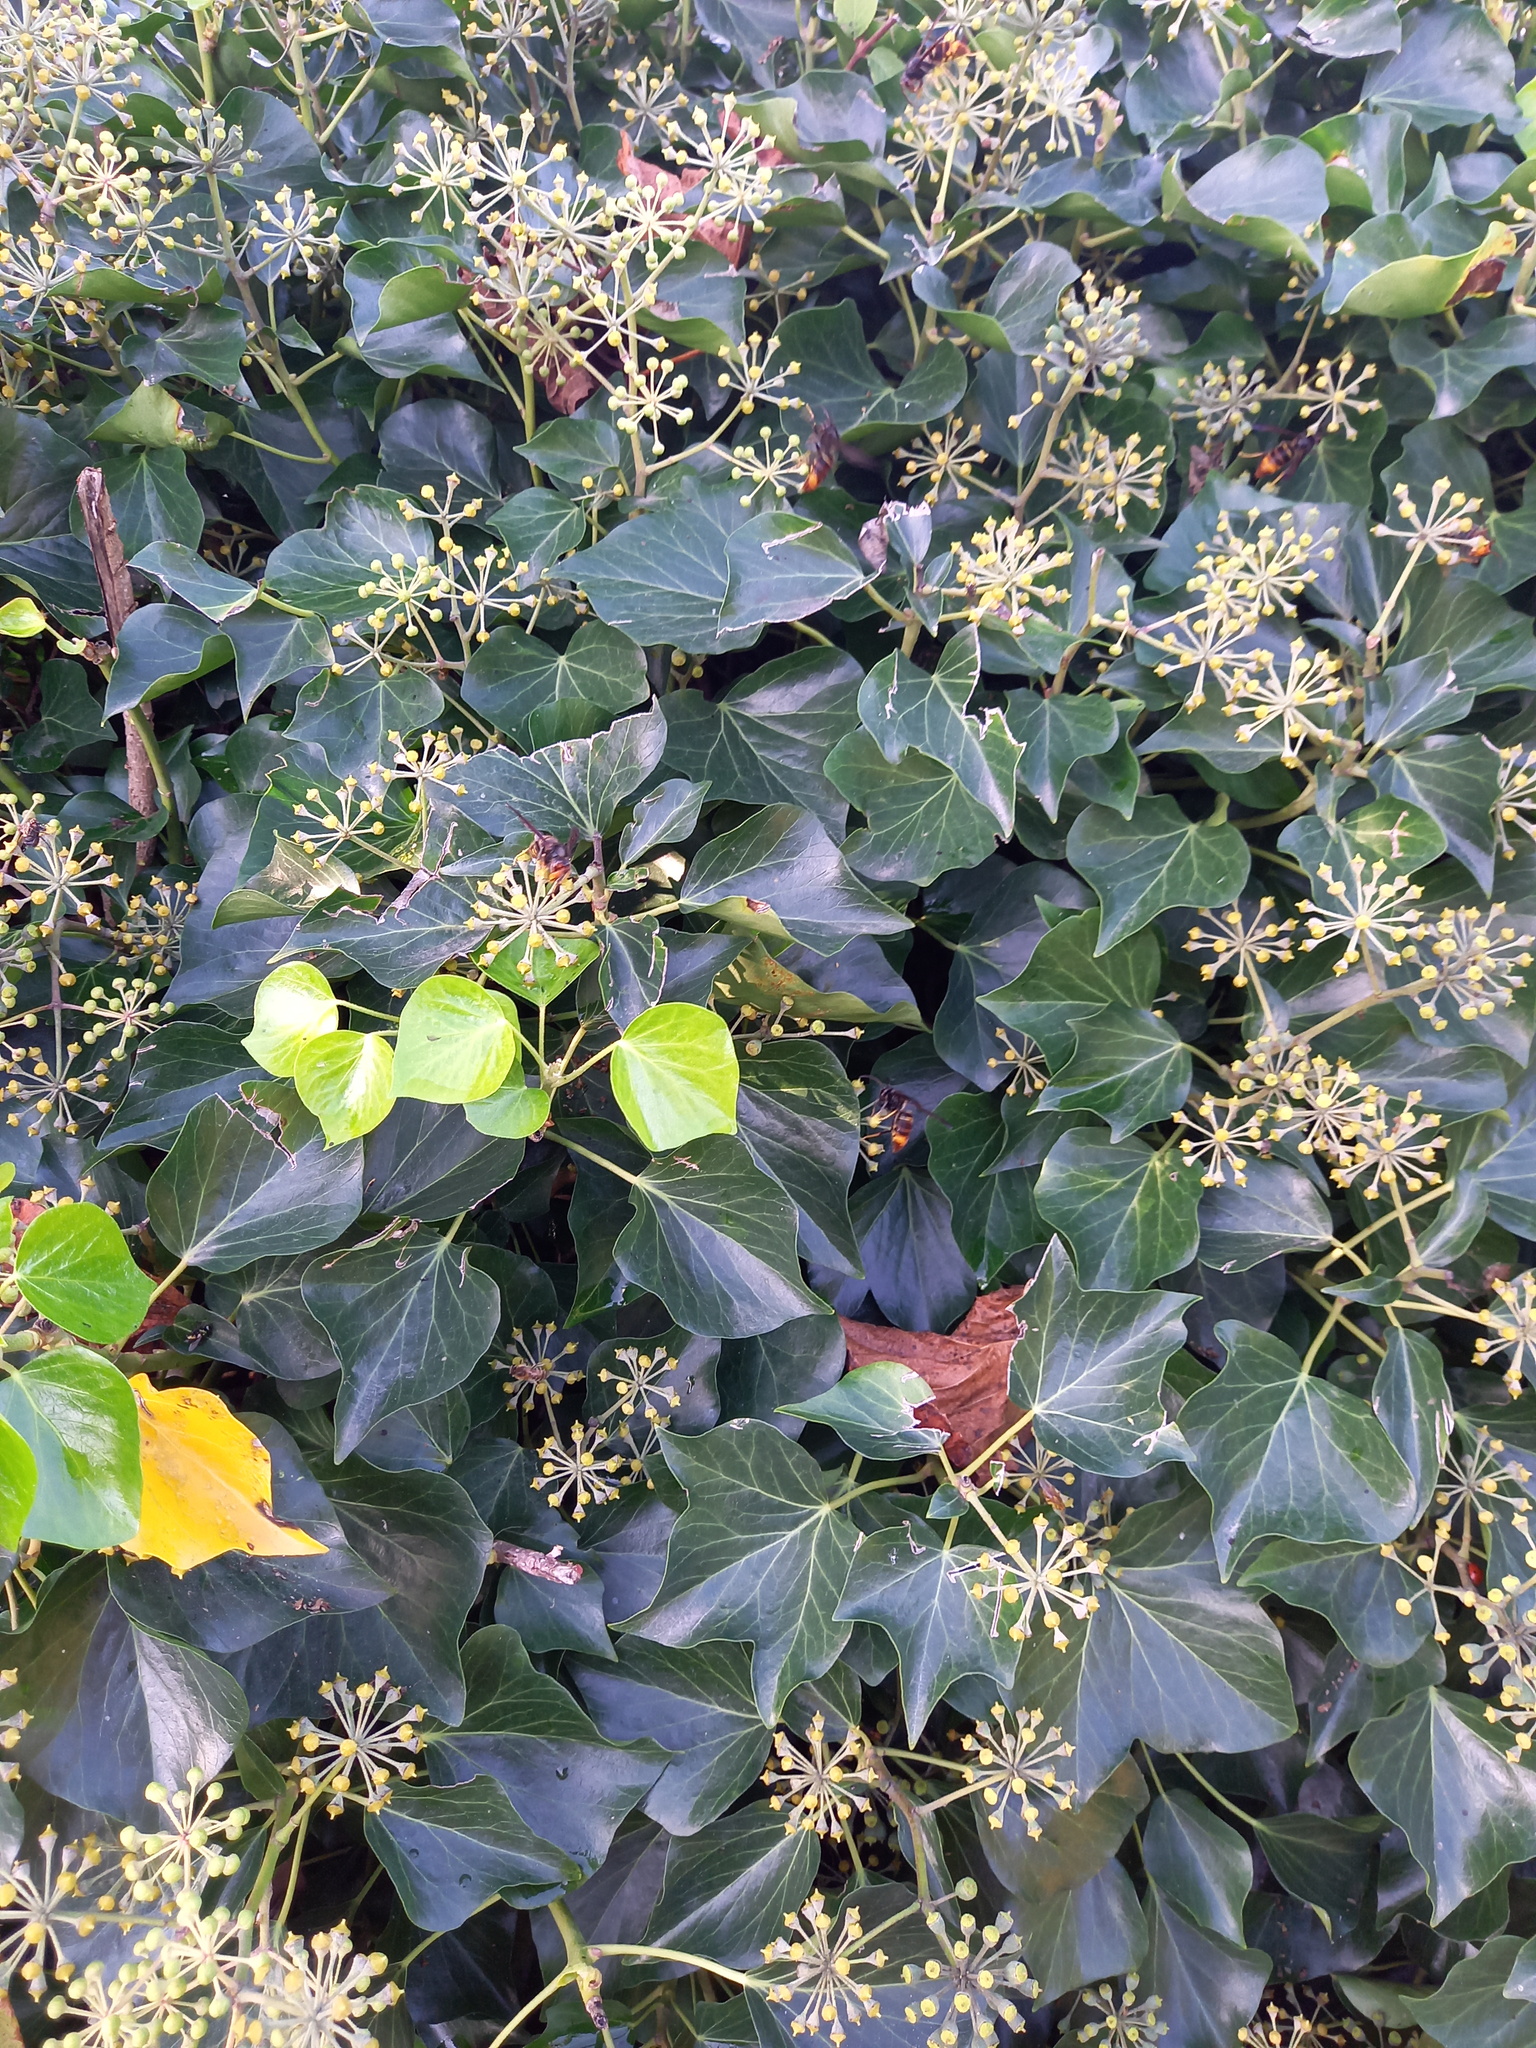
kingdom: Animalia
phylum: Arthropoda
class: Insecta
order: Hymenoptera
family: Vespidae
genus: Vespa
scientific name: Vespa velutina
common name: Asian hornet
